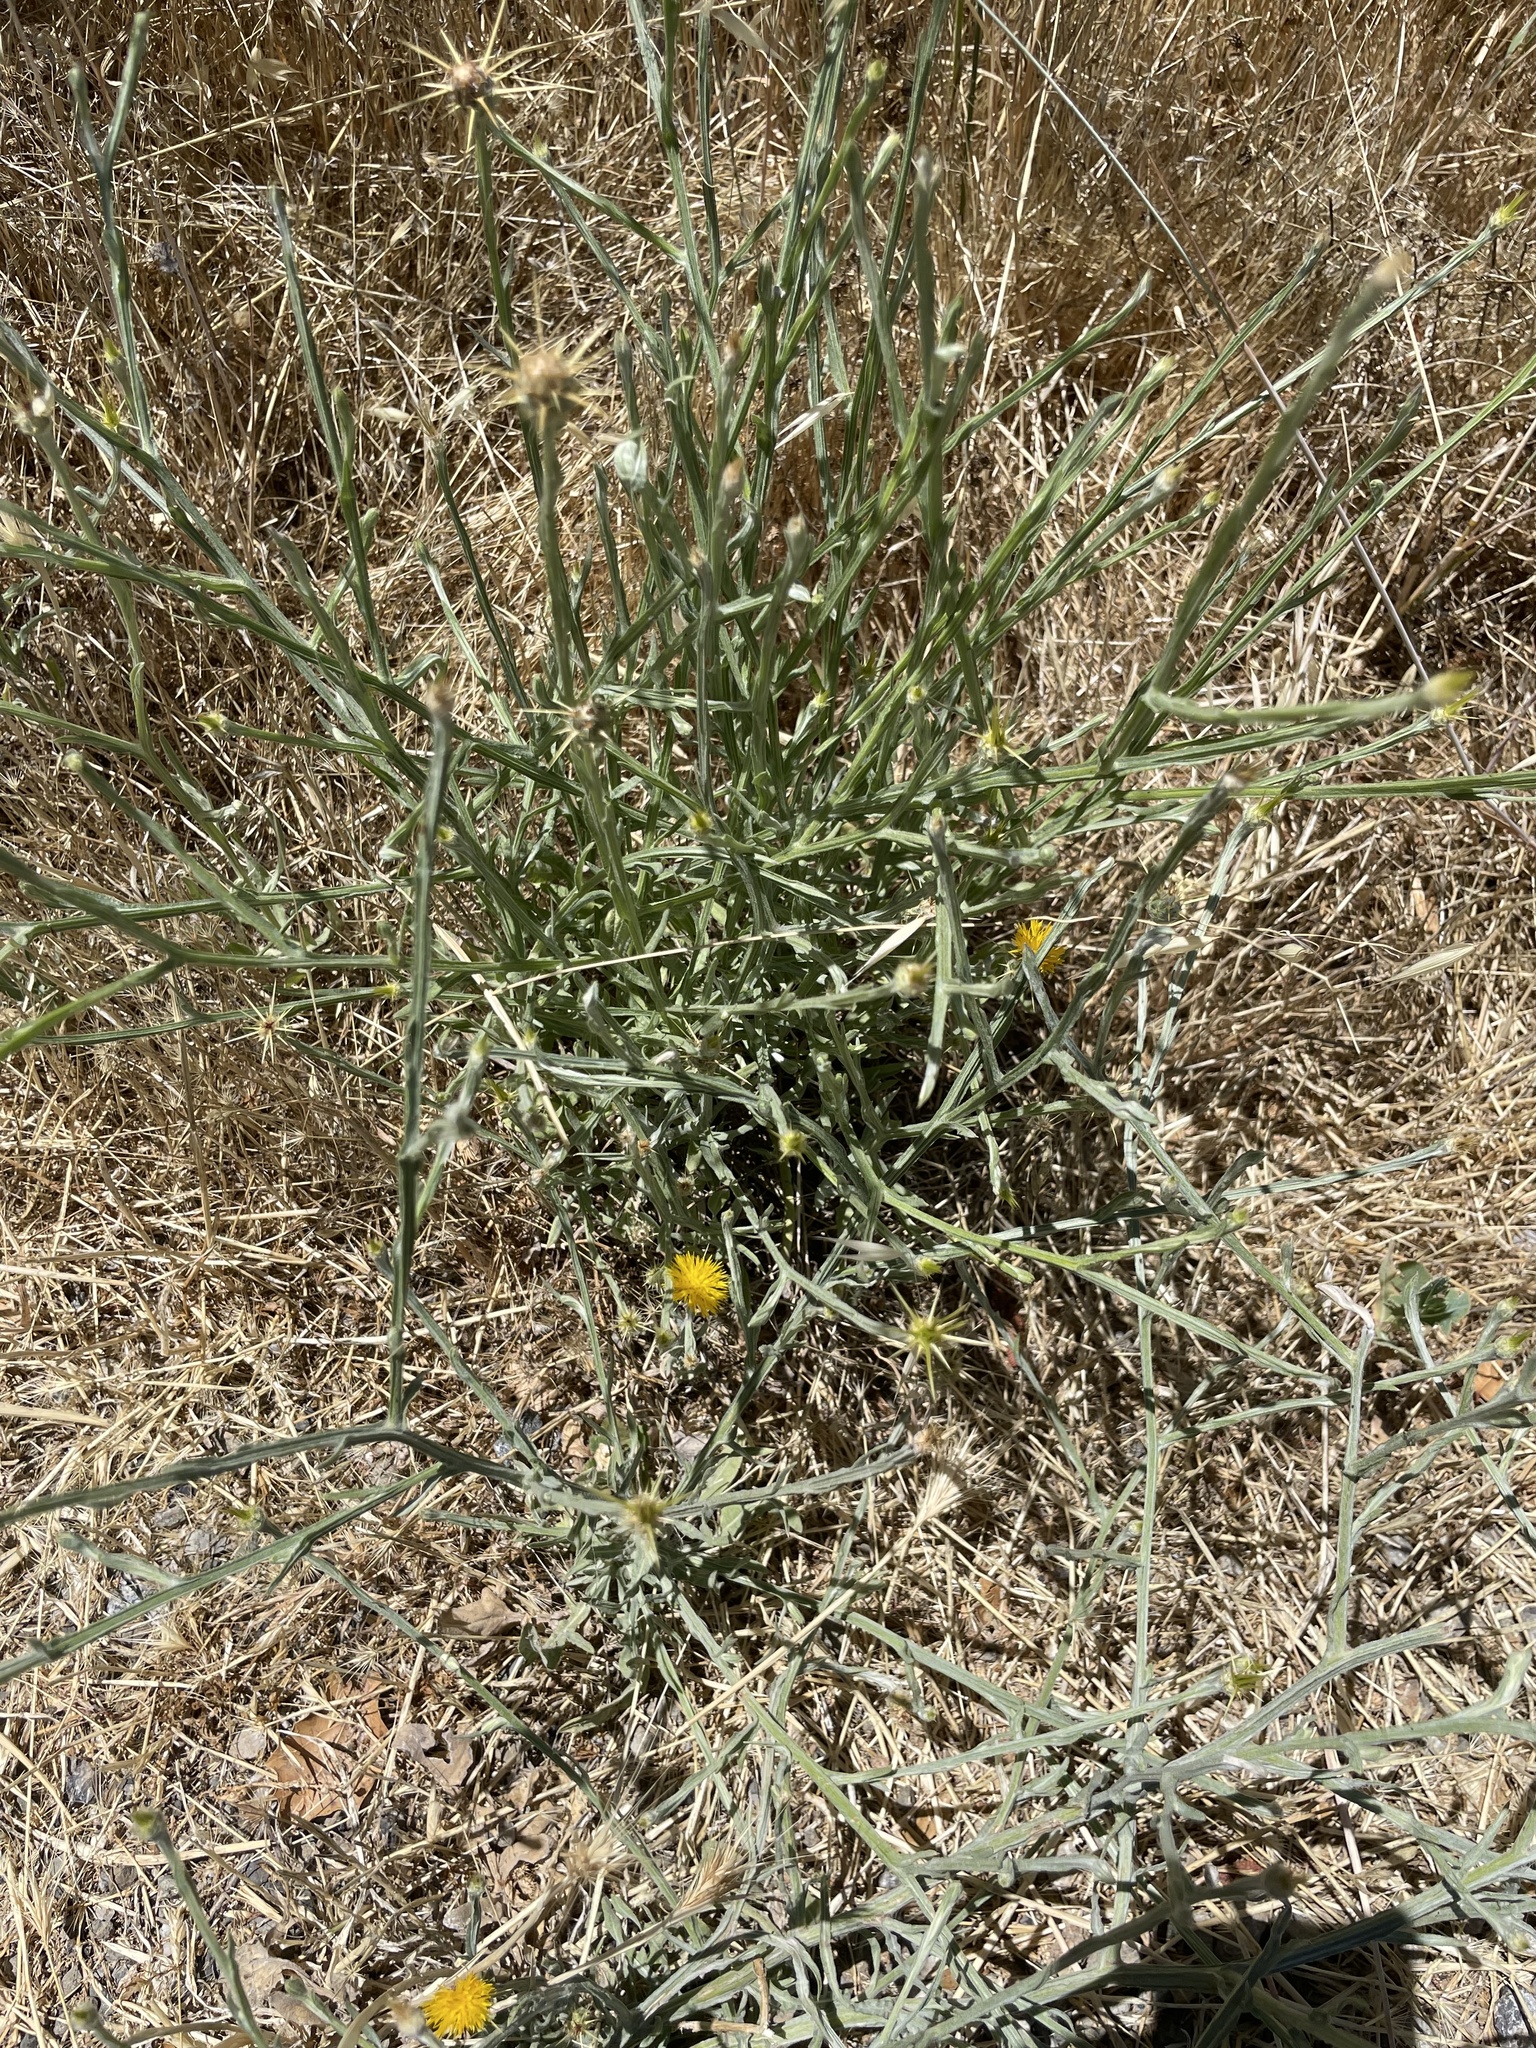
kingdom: Plantae
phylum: Tracheophyta
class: Magnoliopsida
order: Asterales
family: Asteraceae
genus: Centaurea
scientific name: Centaurea solstitialis
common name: Yellow star-thistle
